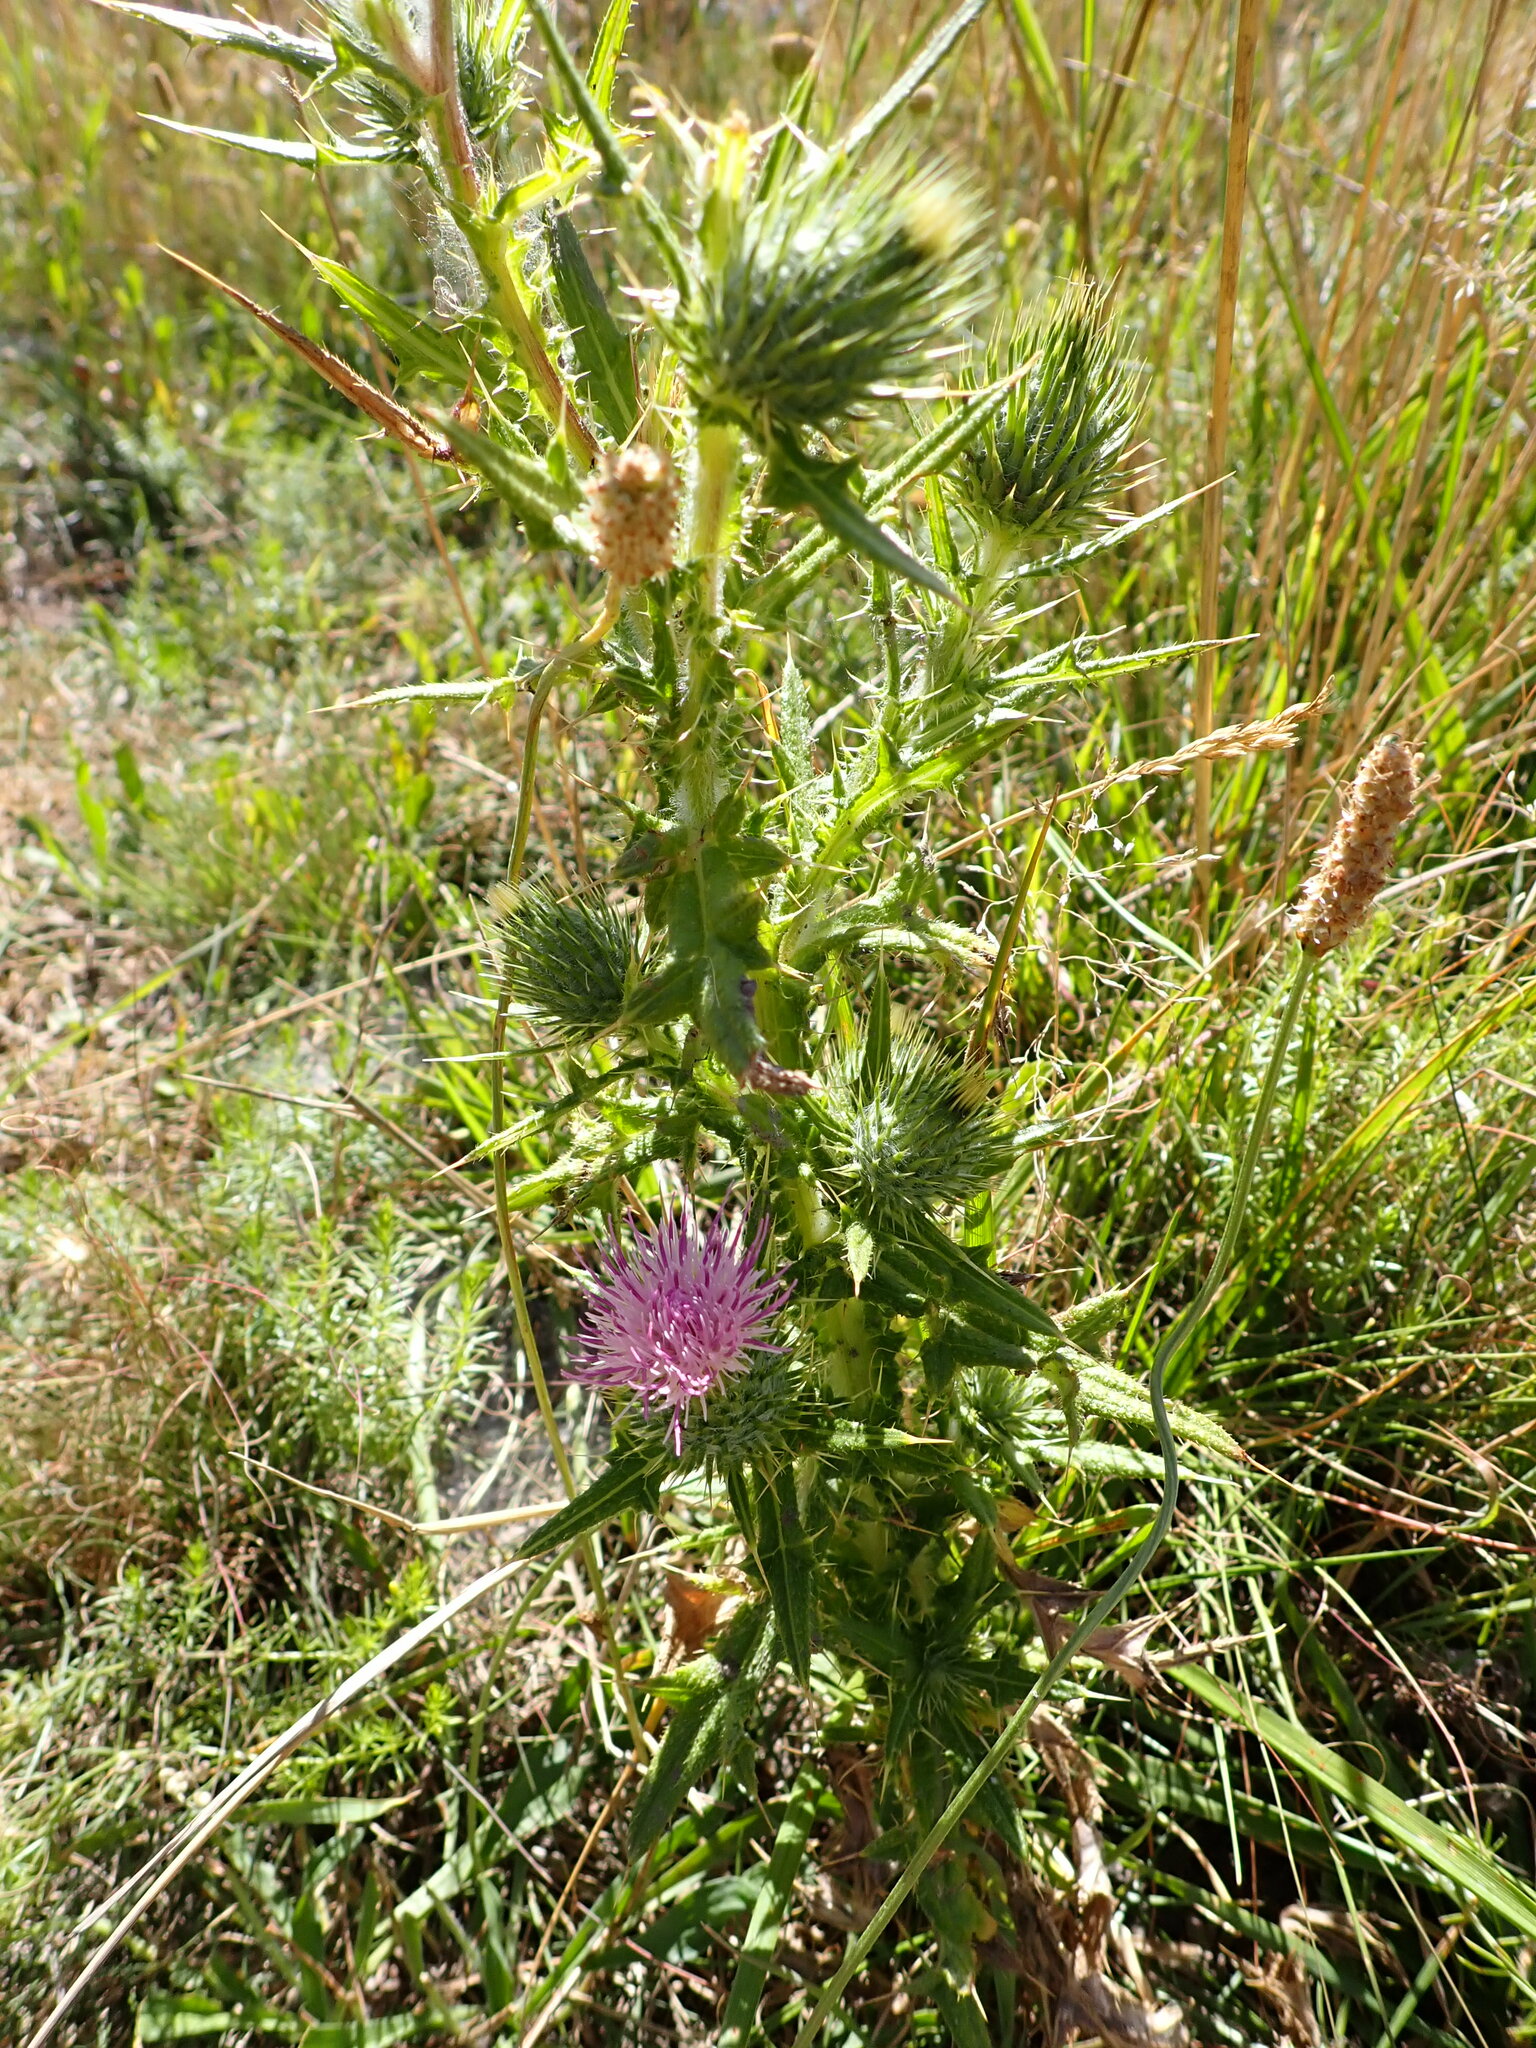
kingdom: Plantae
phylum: Tracheophyta
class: Magnoliopsida
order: Asterales
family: Asteraceae
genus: Cirsium
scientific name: Cirsium vulgare
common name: Bull thistle
